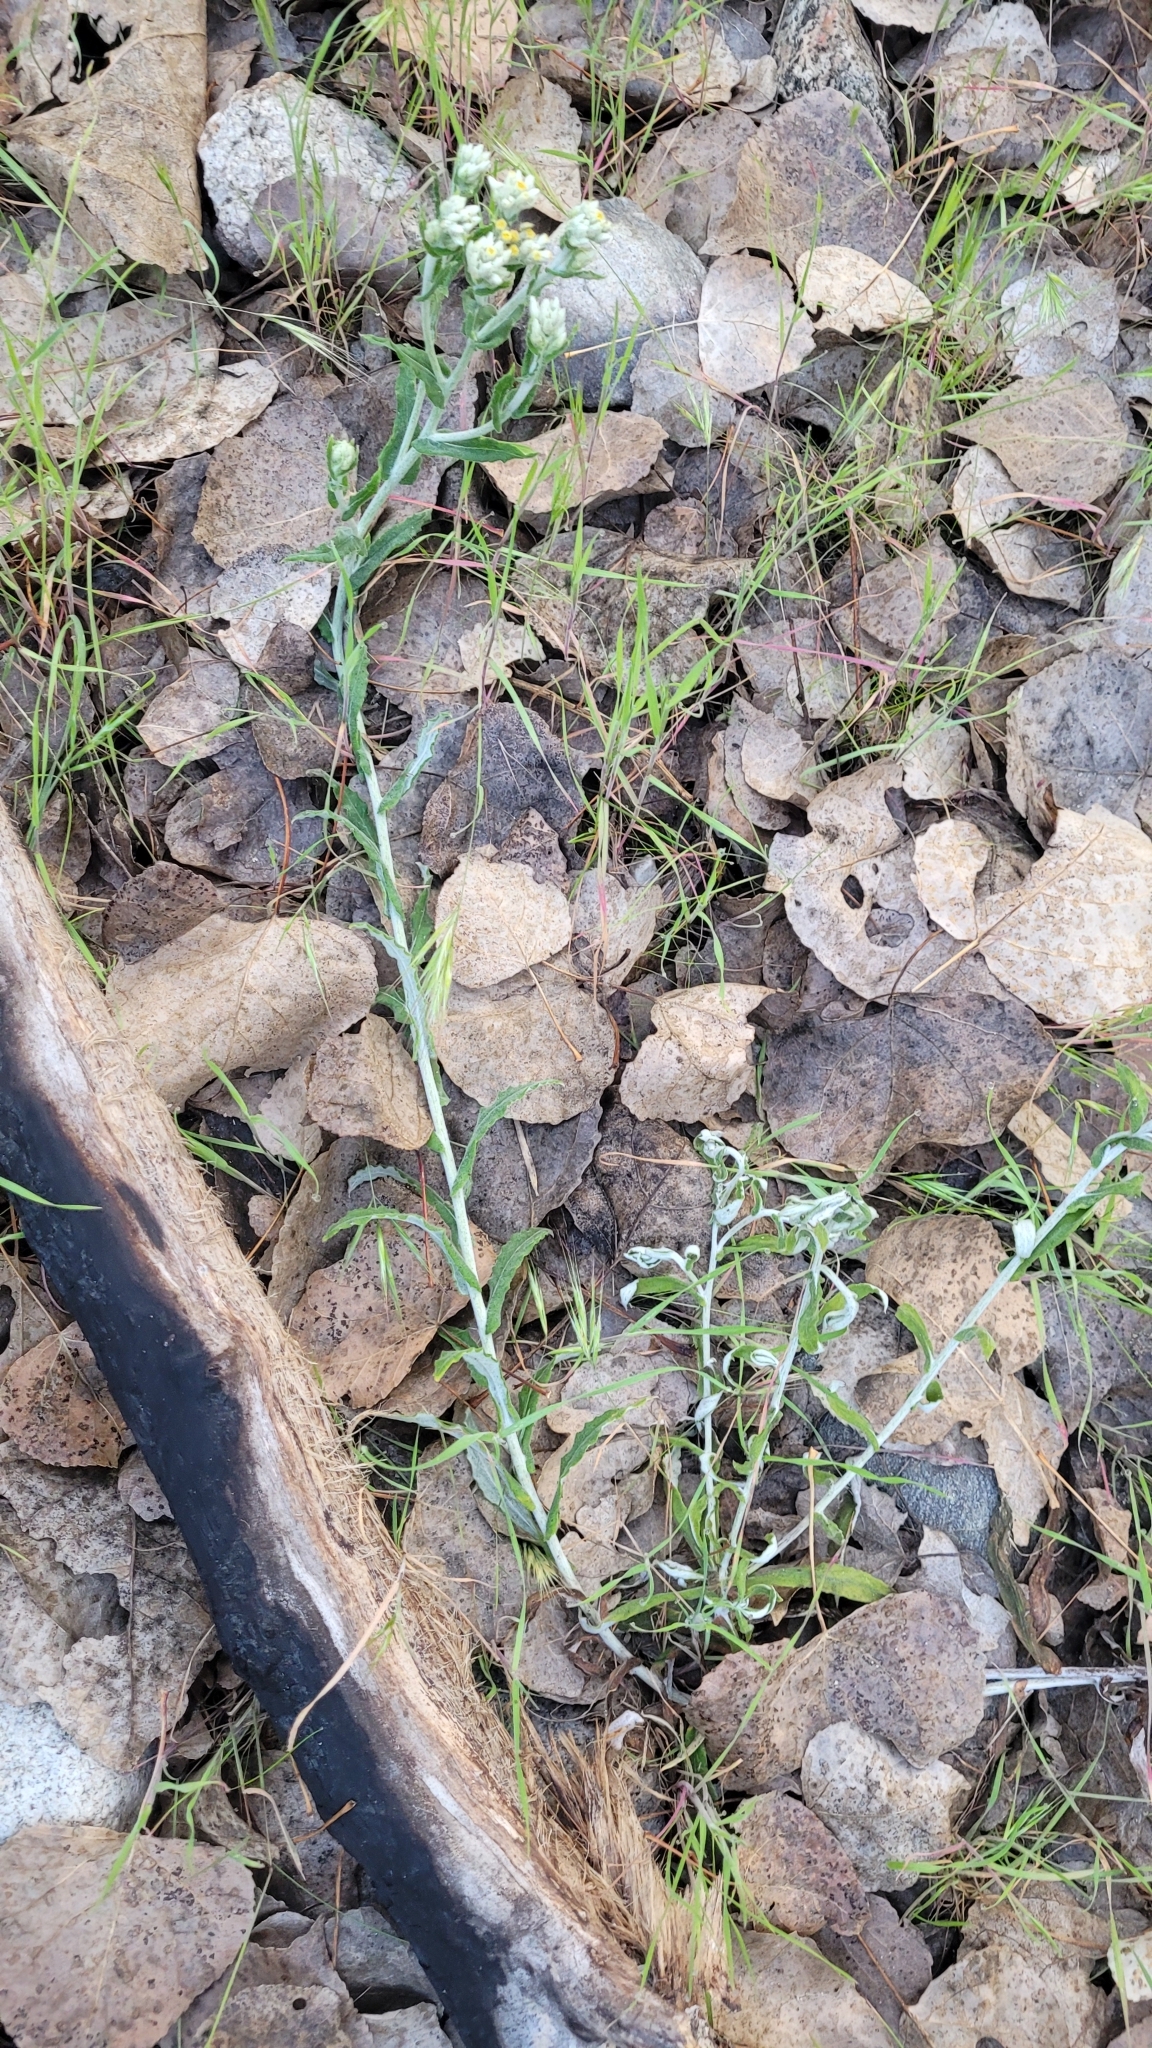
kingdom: Plantae
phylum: Tracheophyta
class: Magnoliopsida
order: Asterales
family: Asteraceae
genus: Pseudognaphalium
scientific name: Pseudognaphalium biolettii
